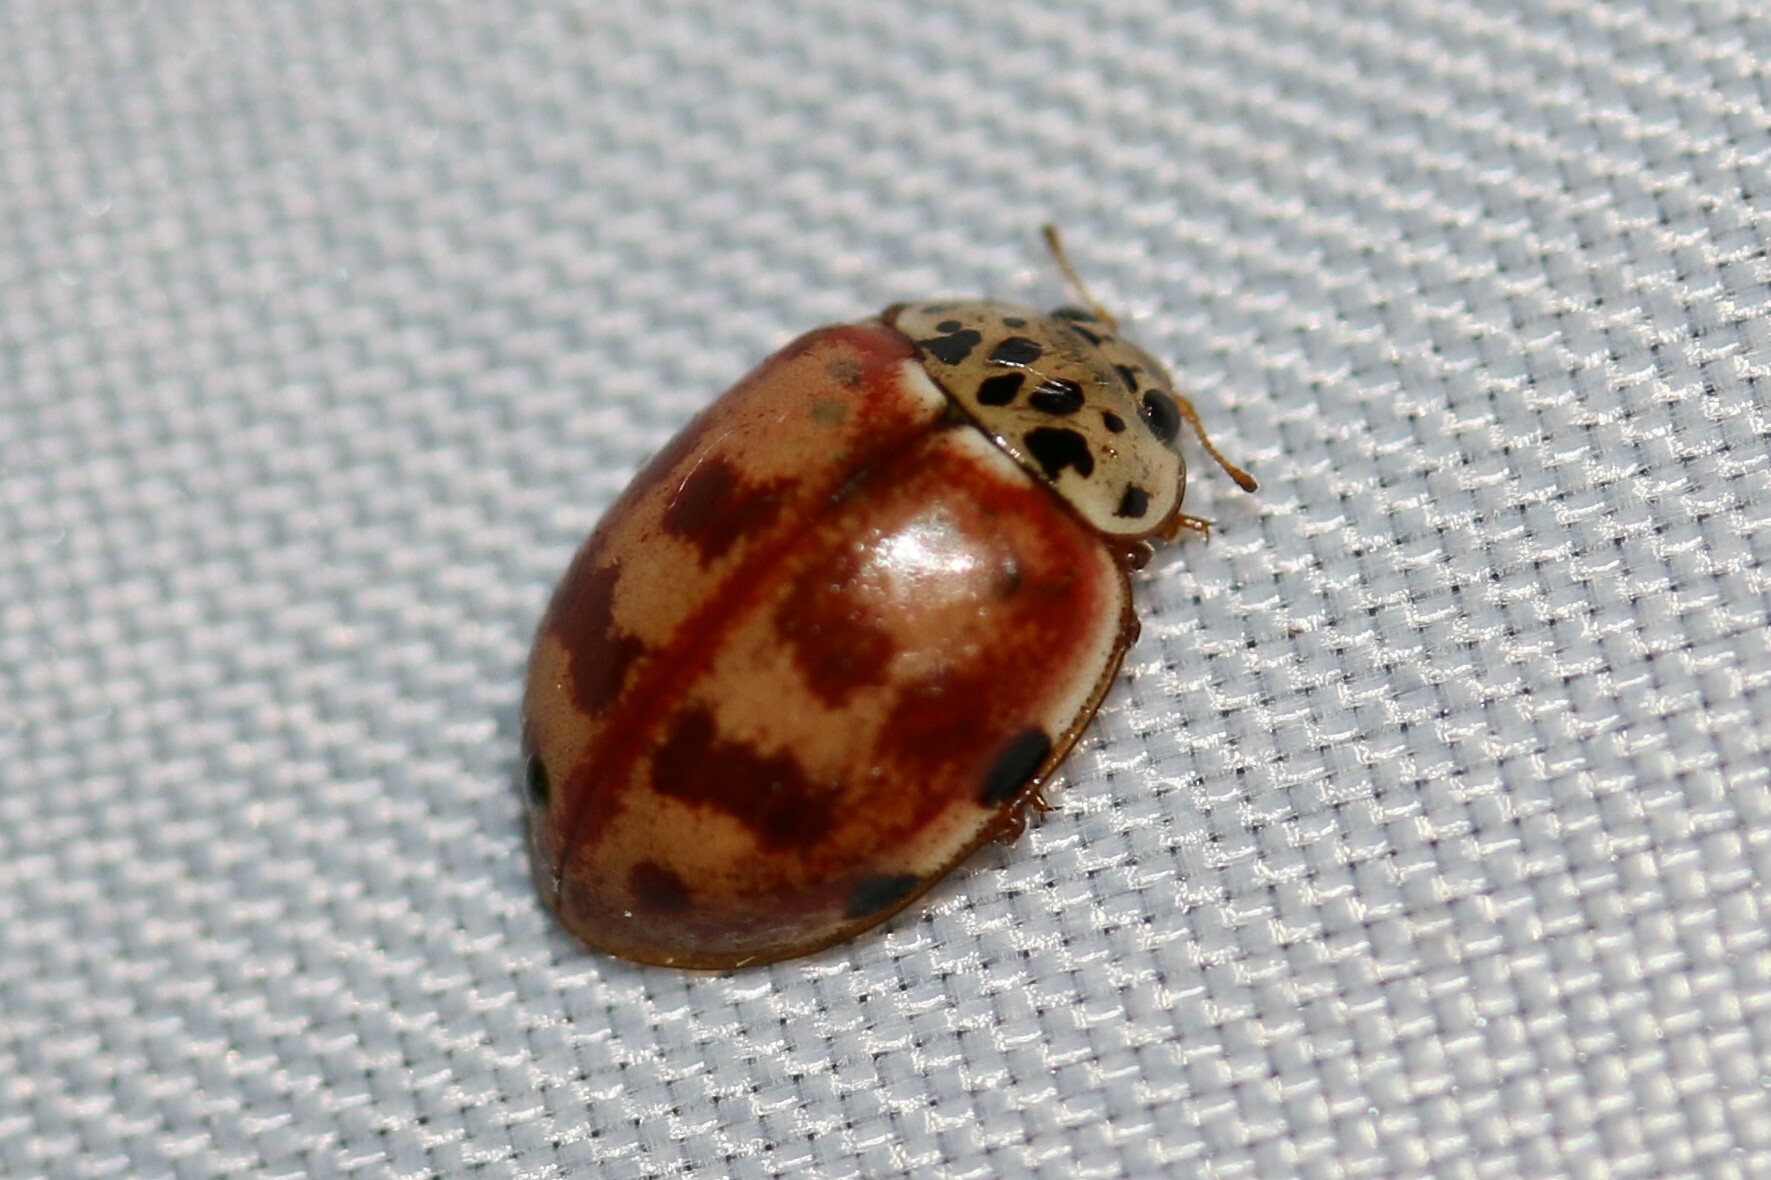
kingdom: Animalia
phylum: Arthropoda
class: Insecta
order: Coleoptera
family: Coccinellidae
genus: Harmonia
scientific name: Harmonia quadripunctata
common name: Cream-streaked ladybird
